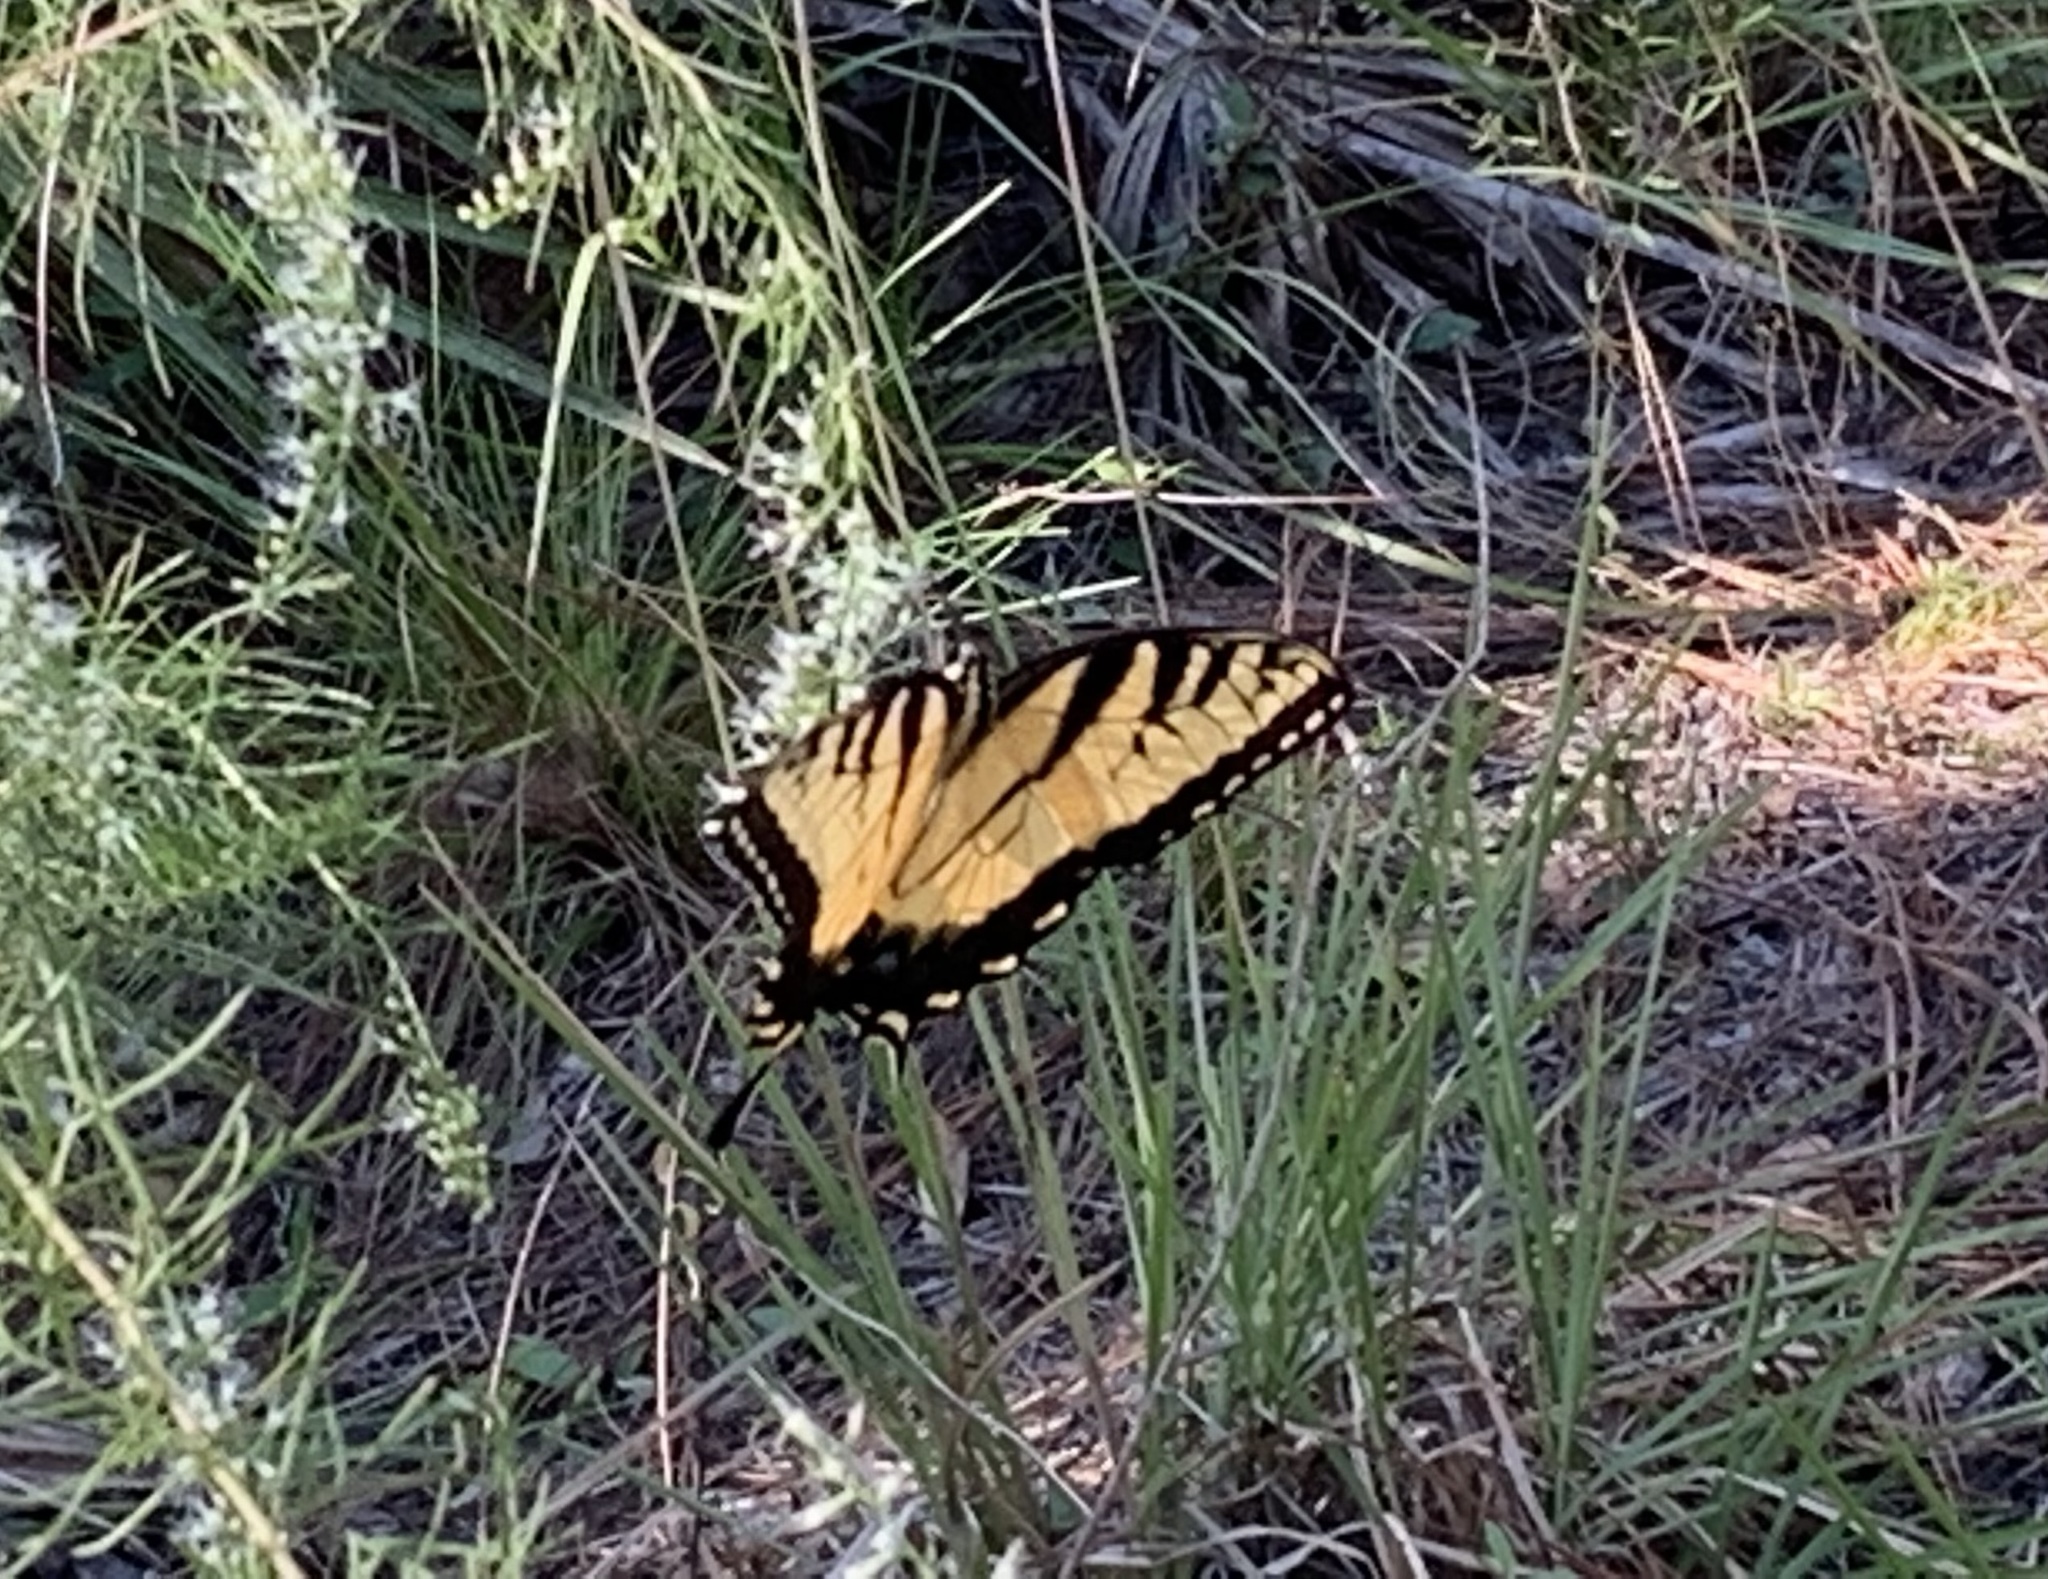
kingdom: Animalia
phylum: Arthropoda
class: Insecta
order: Lepidoptera
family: Papilionidae
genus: Papilio
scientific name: Papilio glaucus
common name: Tiger swallowtail
